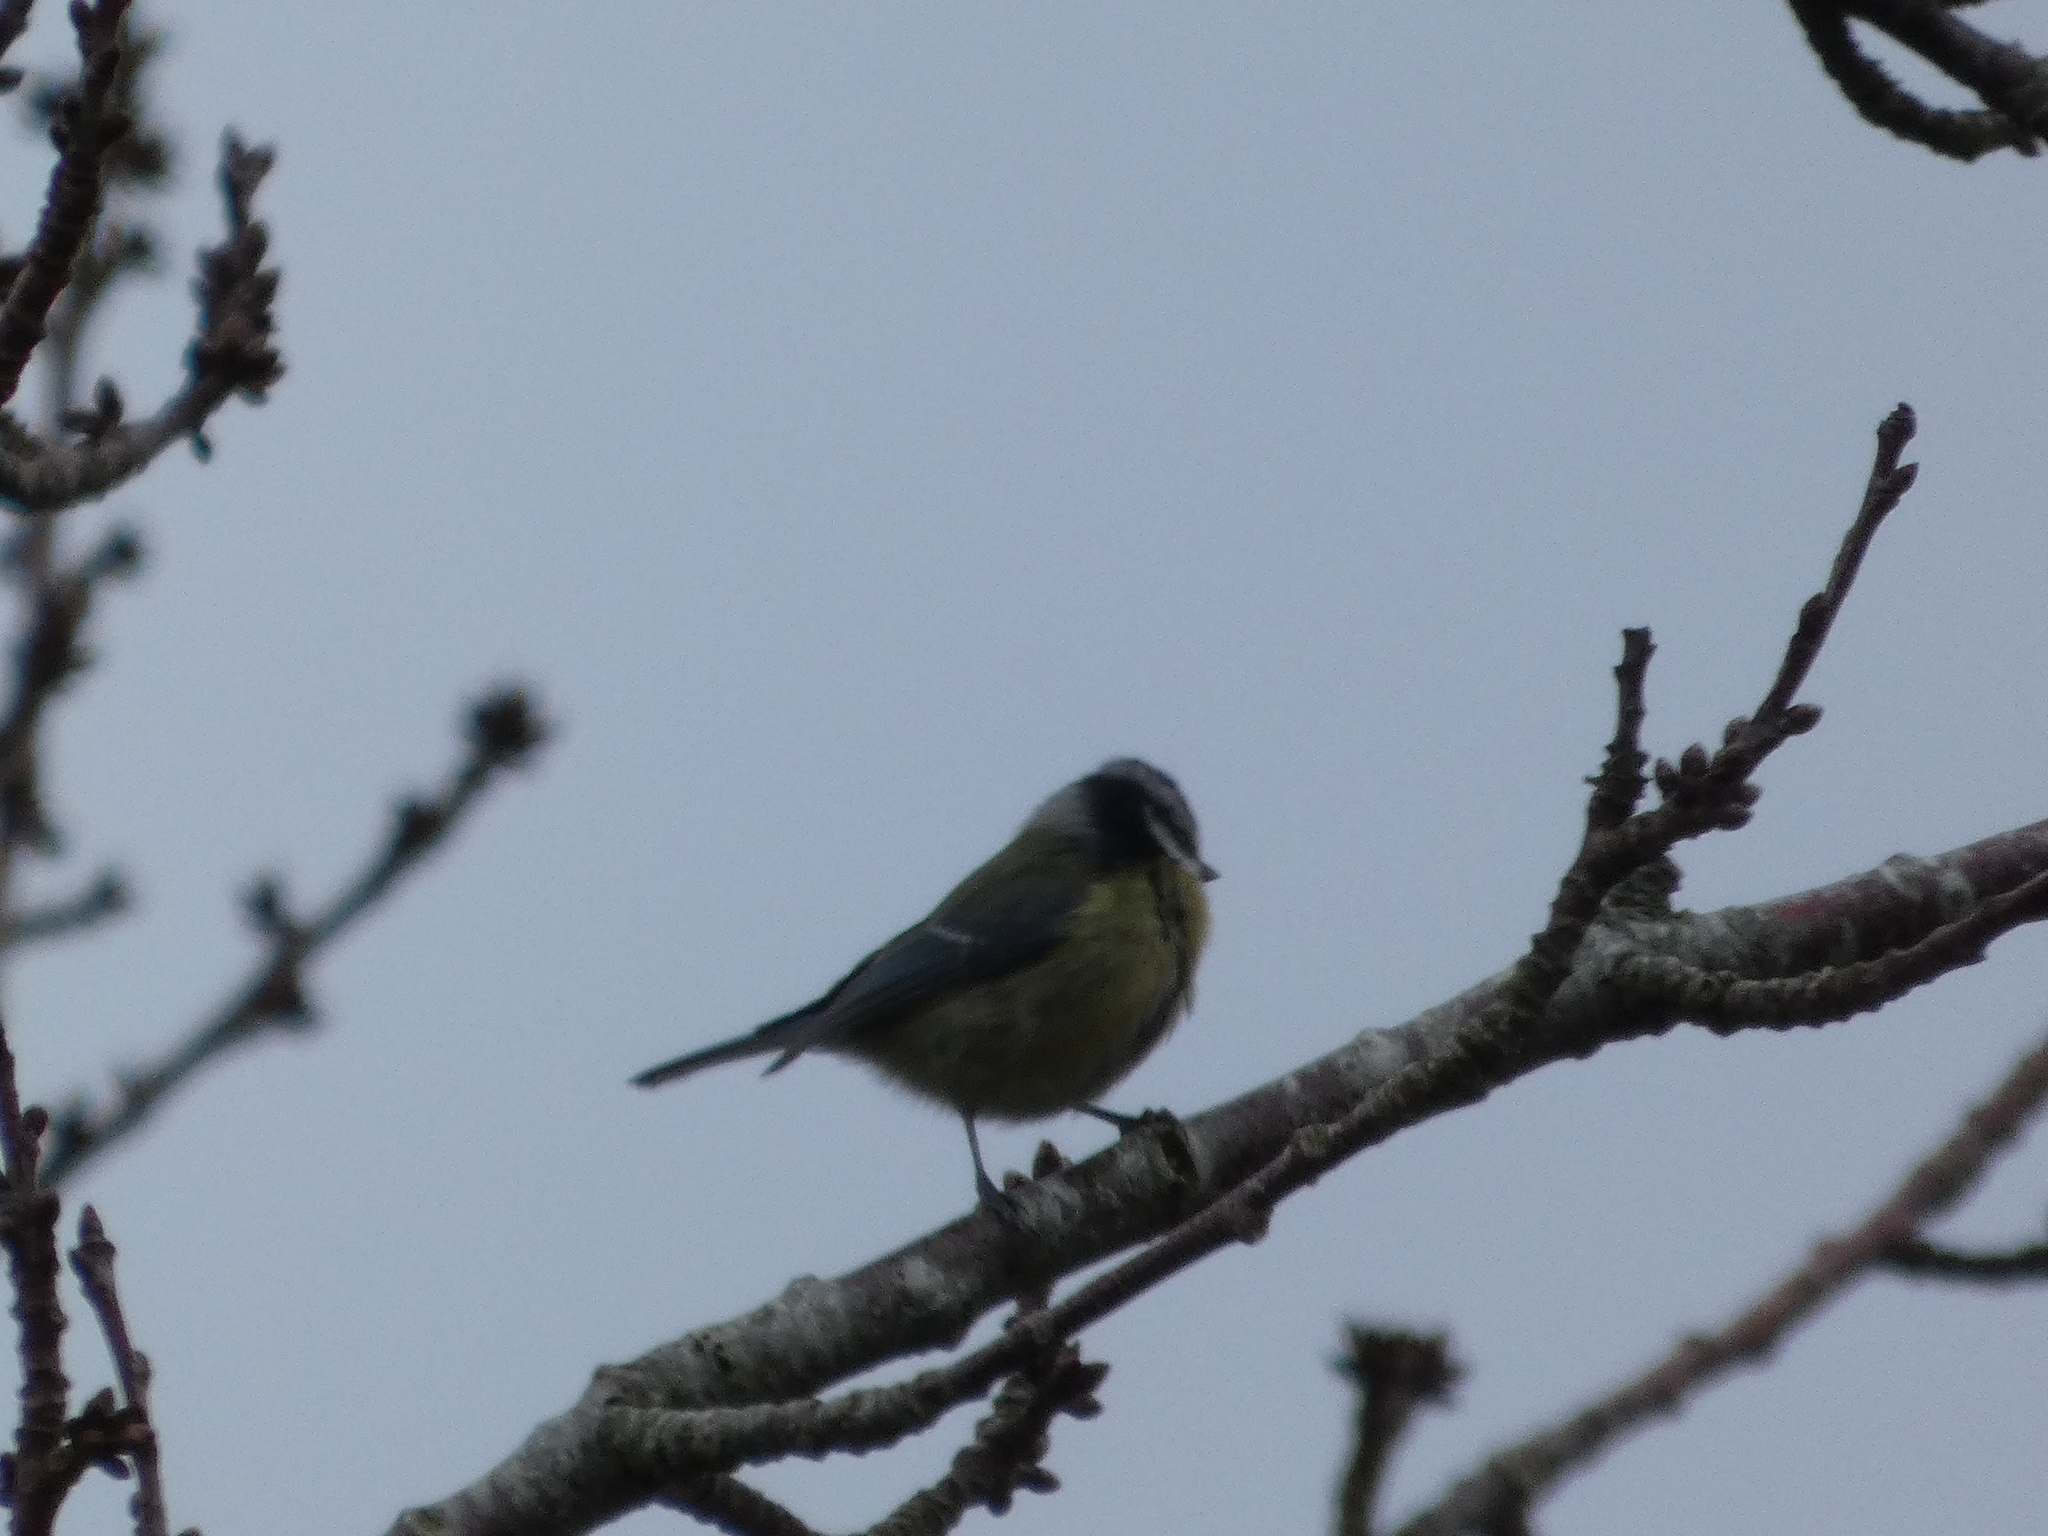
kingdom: Animalia
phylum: Chordata
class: Aves
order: Passeriformes
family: Paridae
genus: Cyanistes
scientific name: Cyanistes caeruleus
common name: Eurasian blue tit
